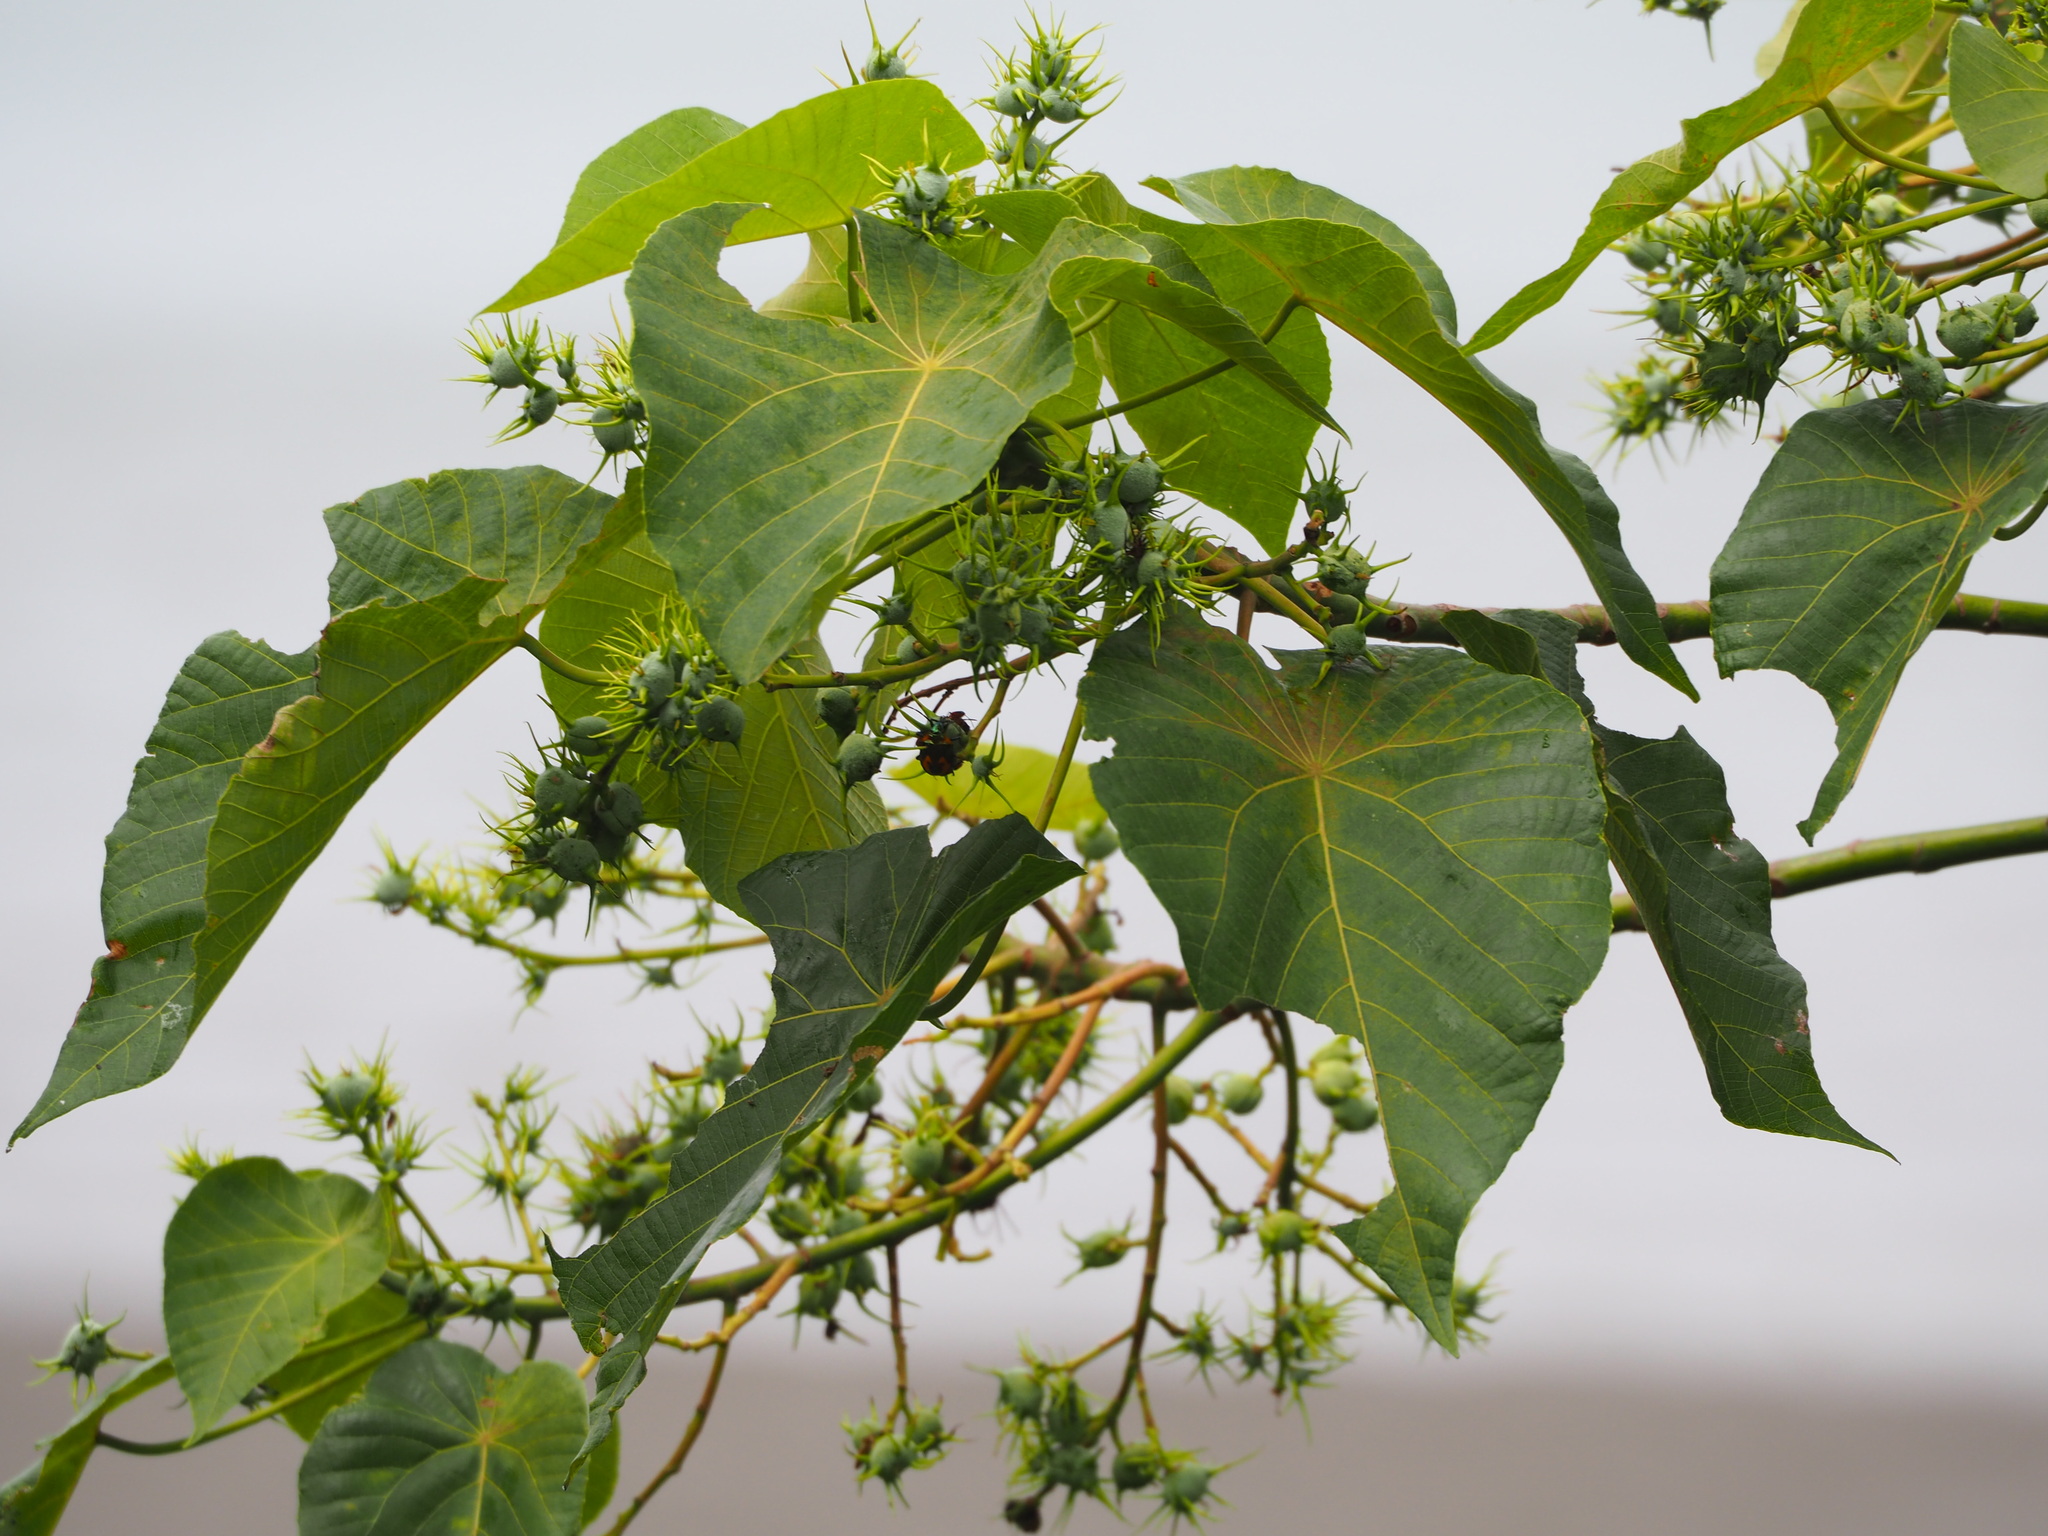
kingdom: Plantae
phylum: Tracheophyta
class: Magnoliopsida
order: Malpighiales
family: Euphorbiaceae
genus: Macaranga
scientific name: Macaranga tanarius
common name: Parasol leaf tree
